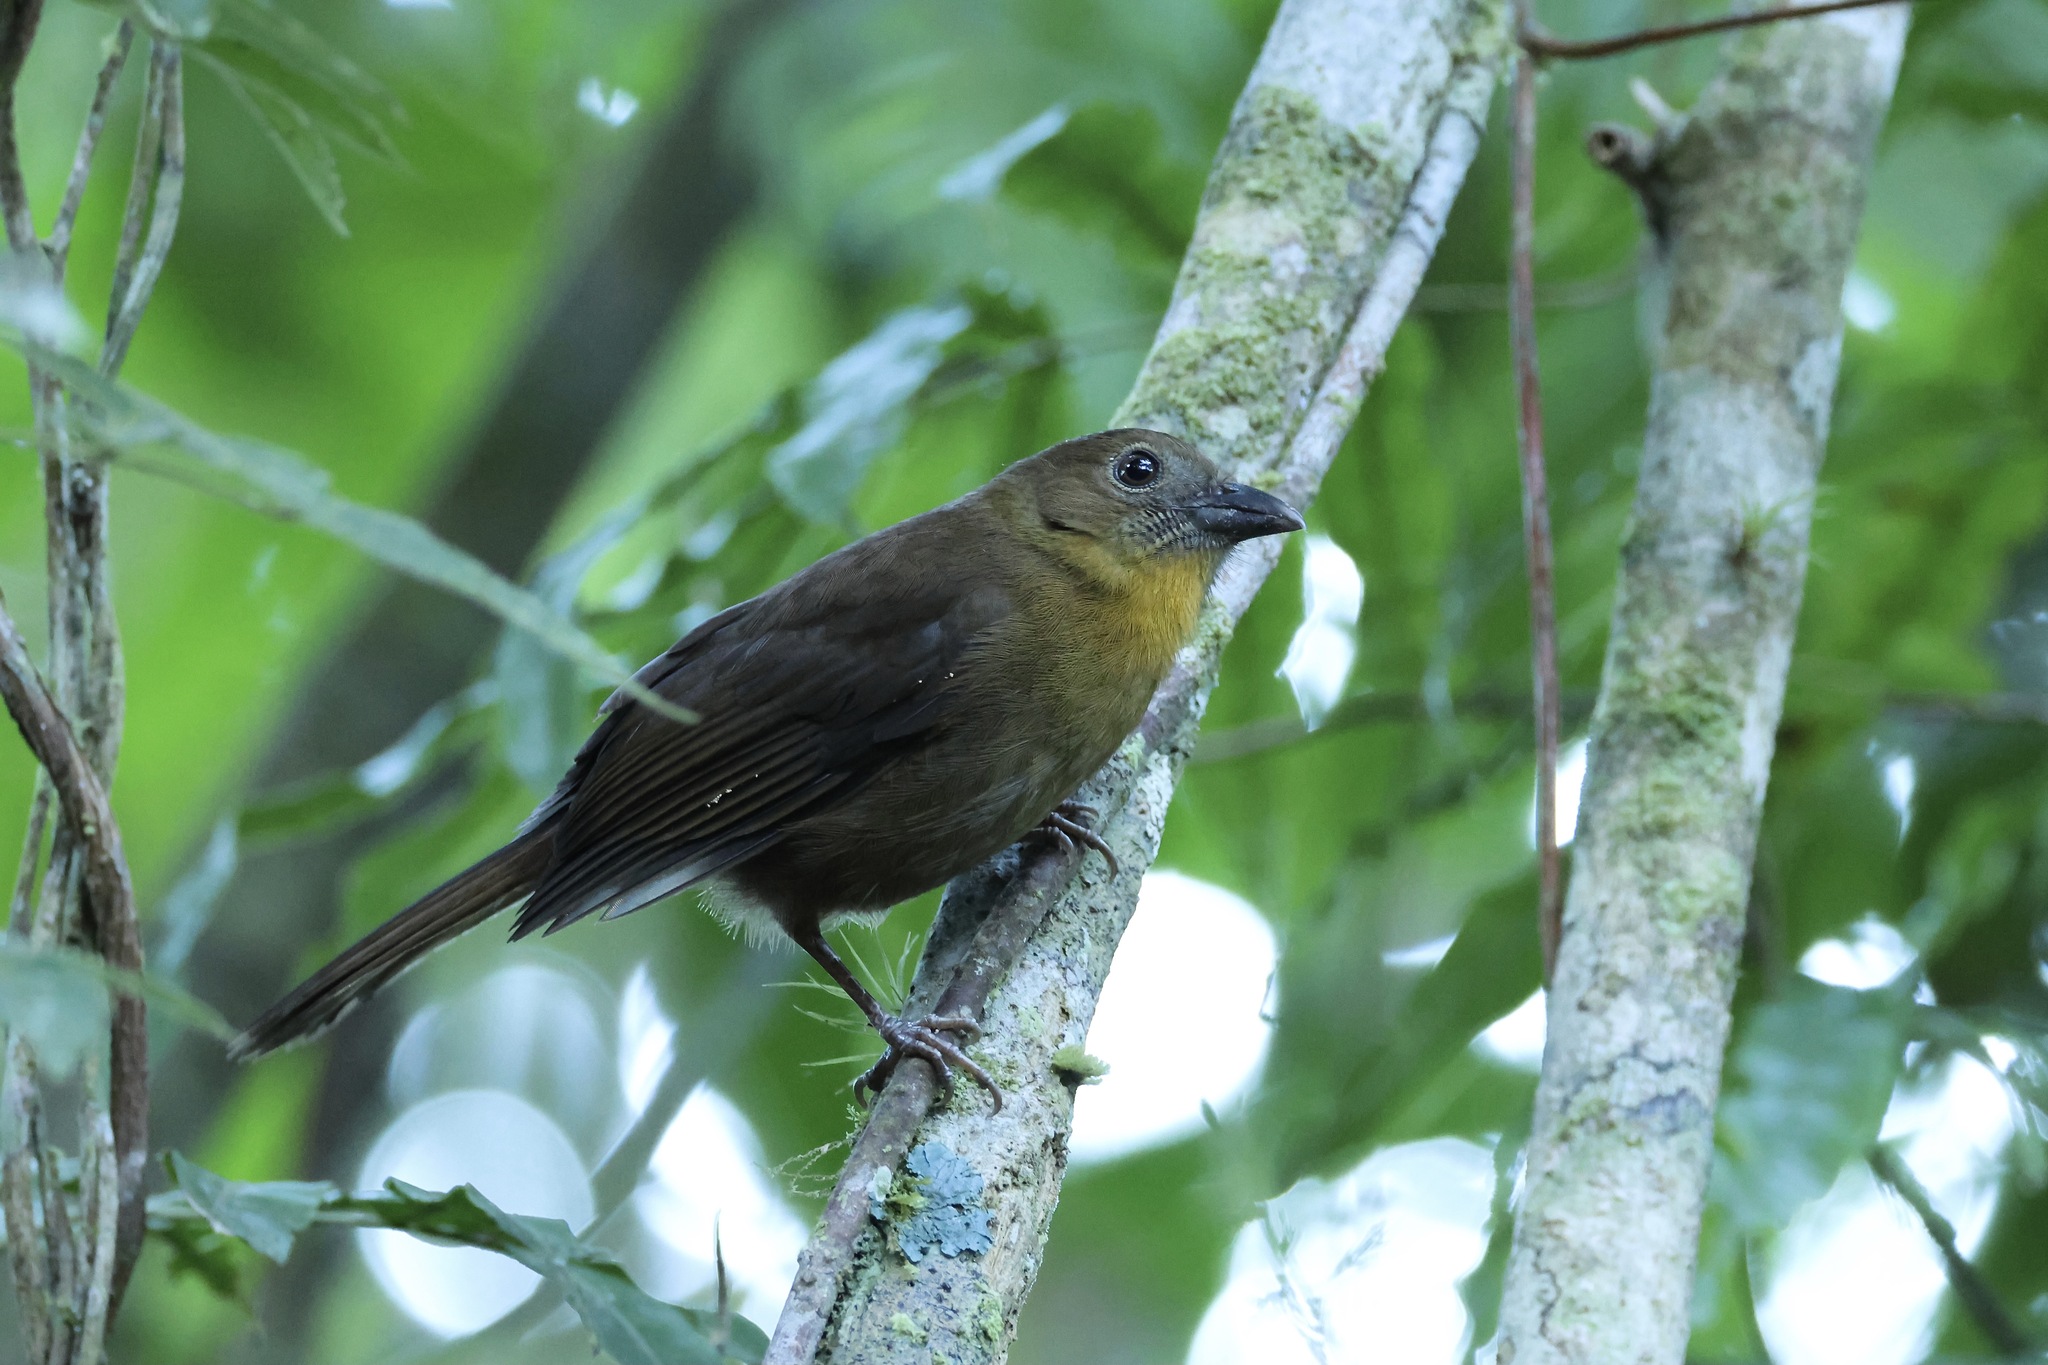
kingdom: Animalia
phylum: Chordata
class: Aves
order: Passeriformes
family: Cardinalidae
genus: Habia
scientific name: Habia fuscicauda
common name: Red-throated ant-tanager
